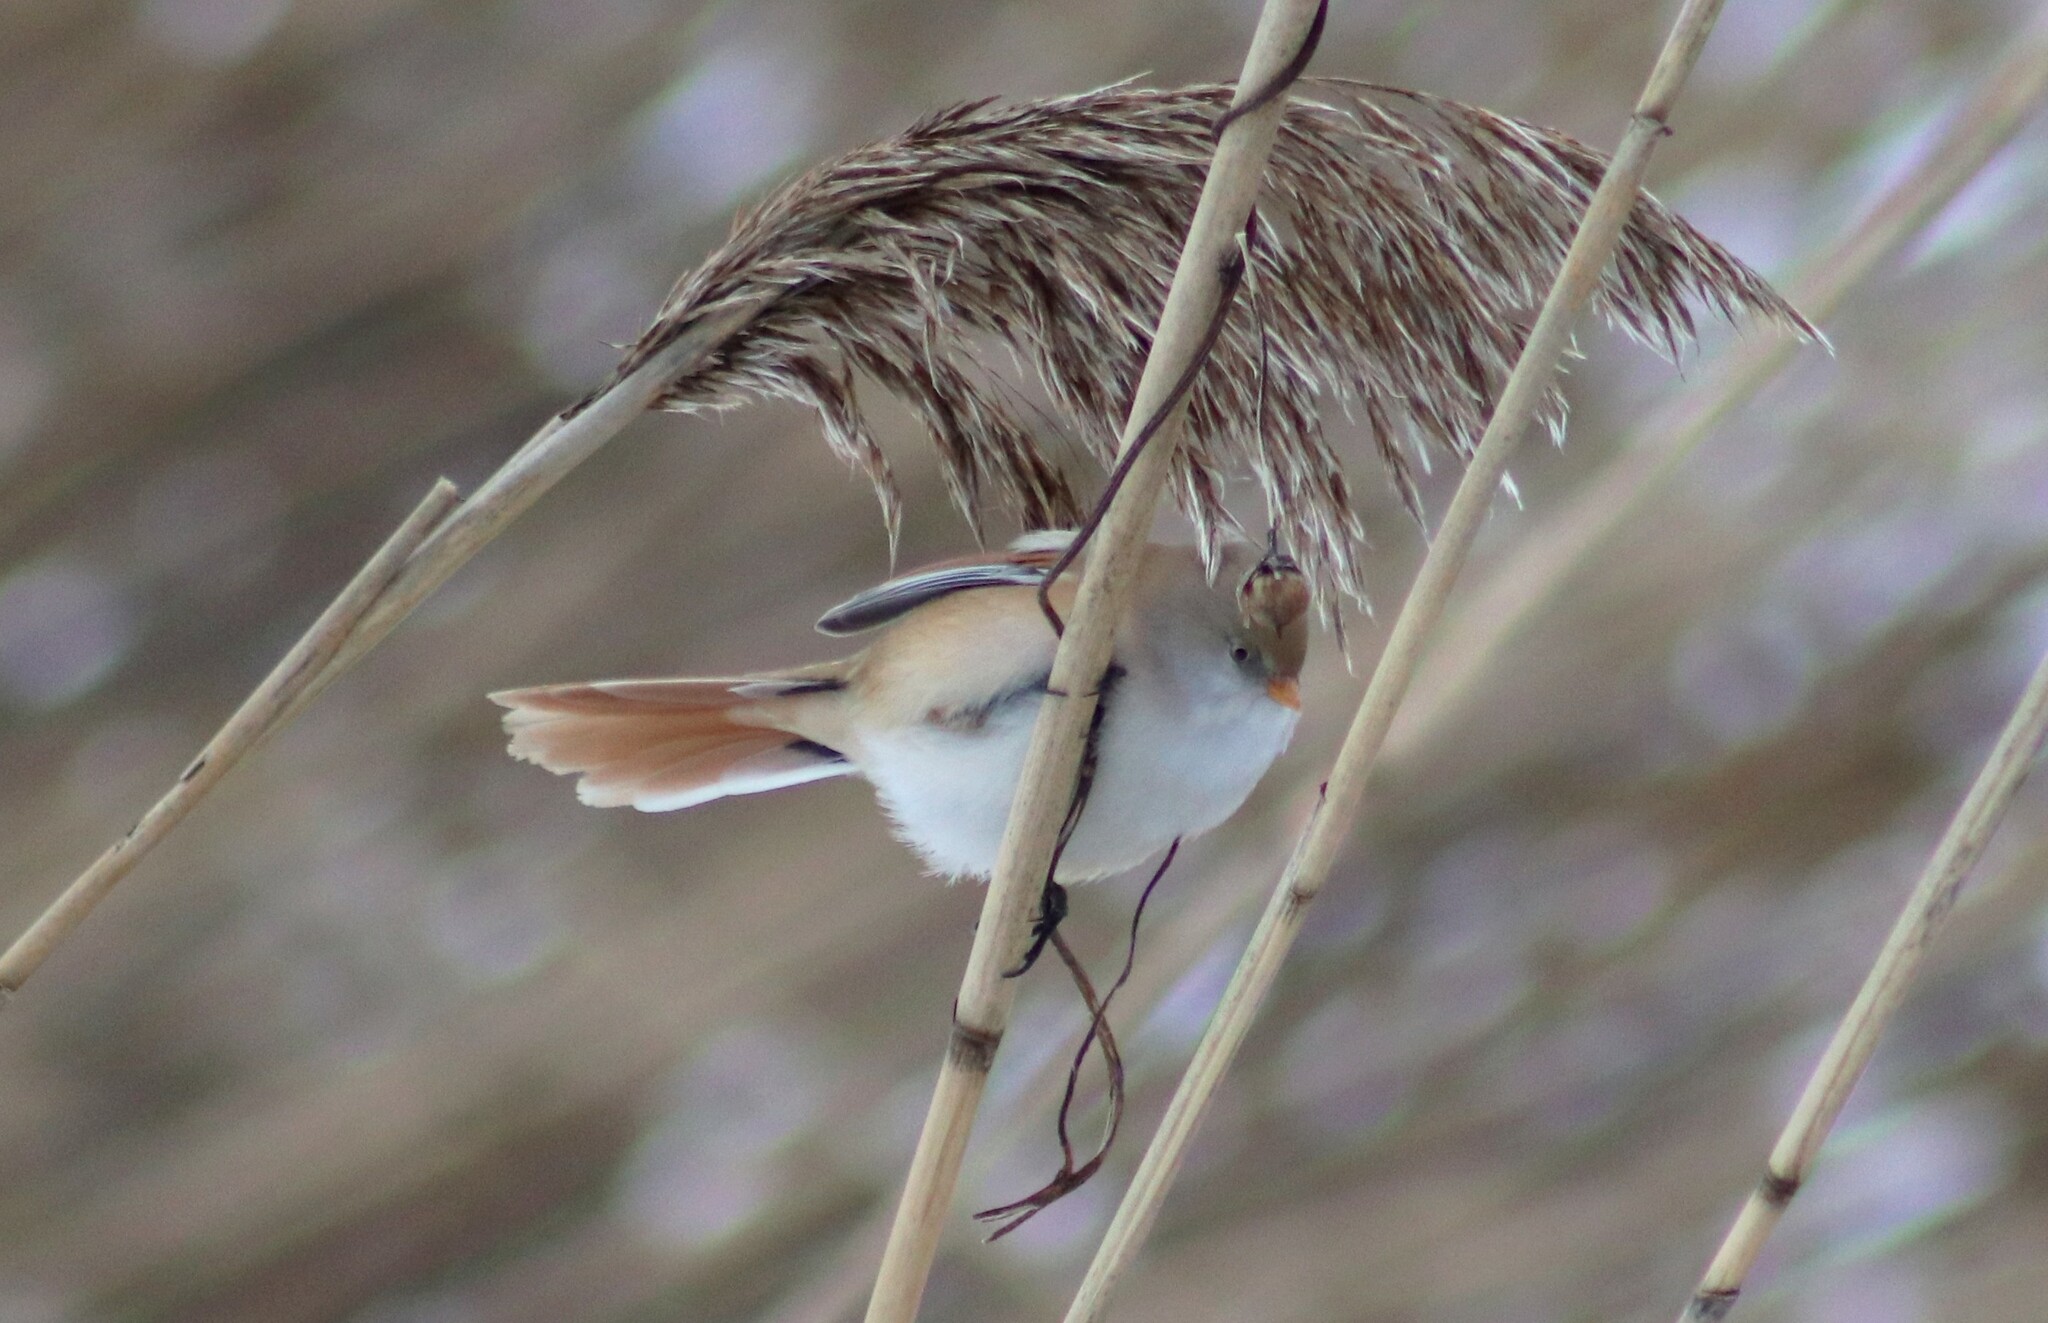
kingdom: Animalia
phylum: Chordata
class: Aves
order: Passeriformes
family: Panuridae
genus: Panurus
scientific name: Panurus biarmicus
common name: Bearded reedling
